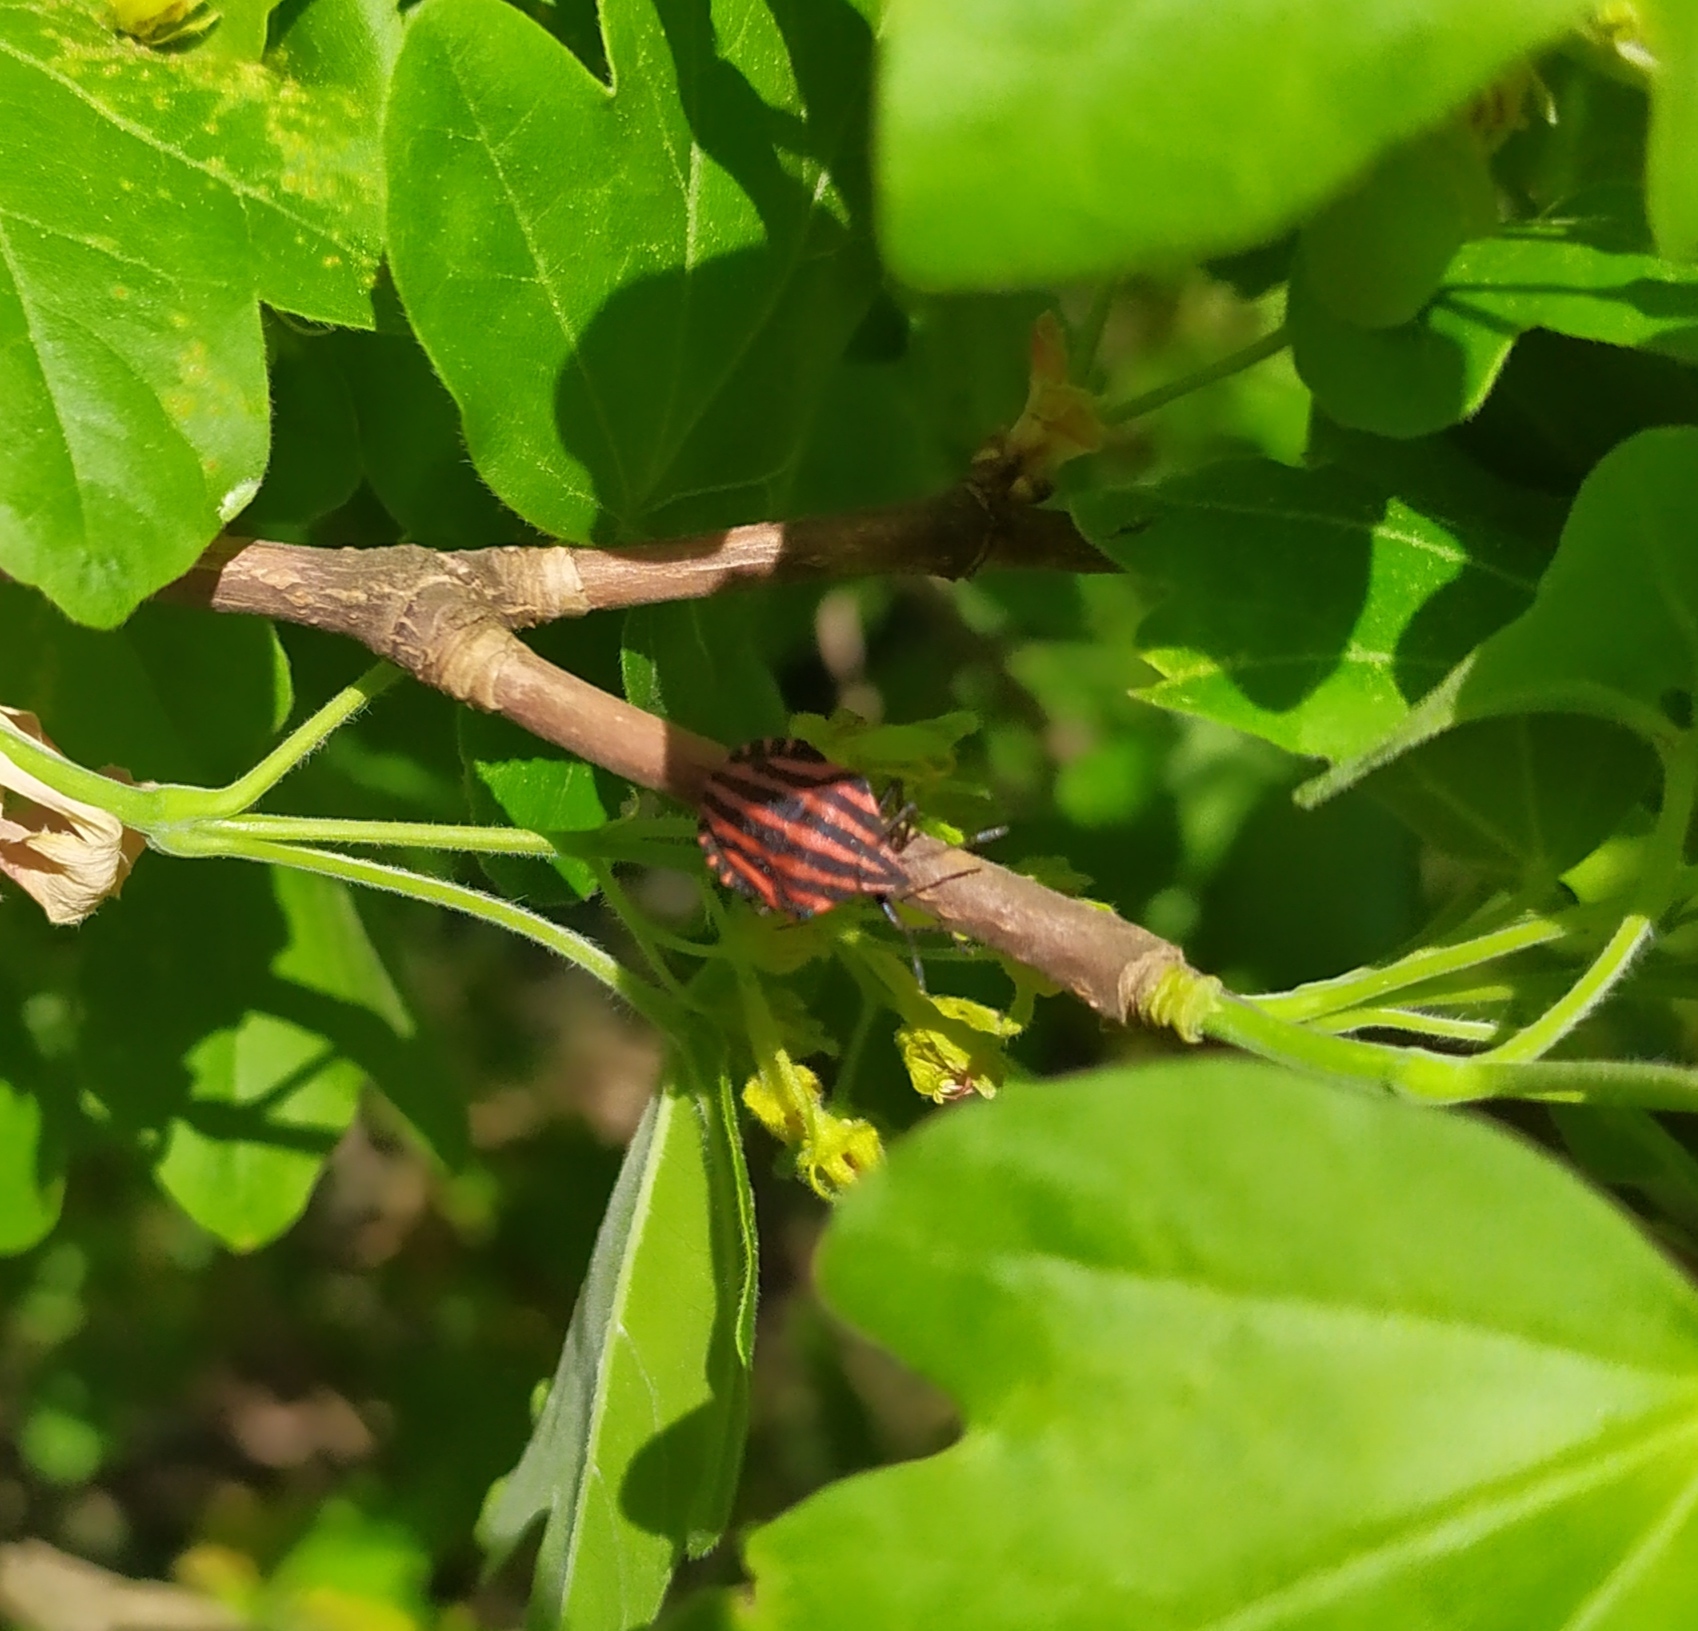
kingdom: Animalia
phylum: Arthropoda
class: Insecta
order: Hemiptera
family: Pentatomidae
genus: Graphosoma
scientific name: Graphosoma italicum
